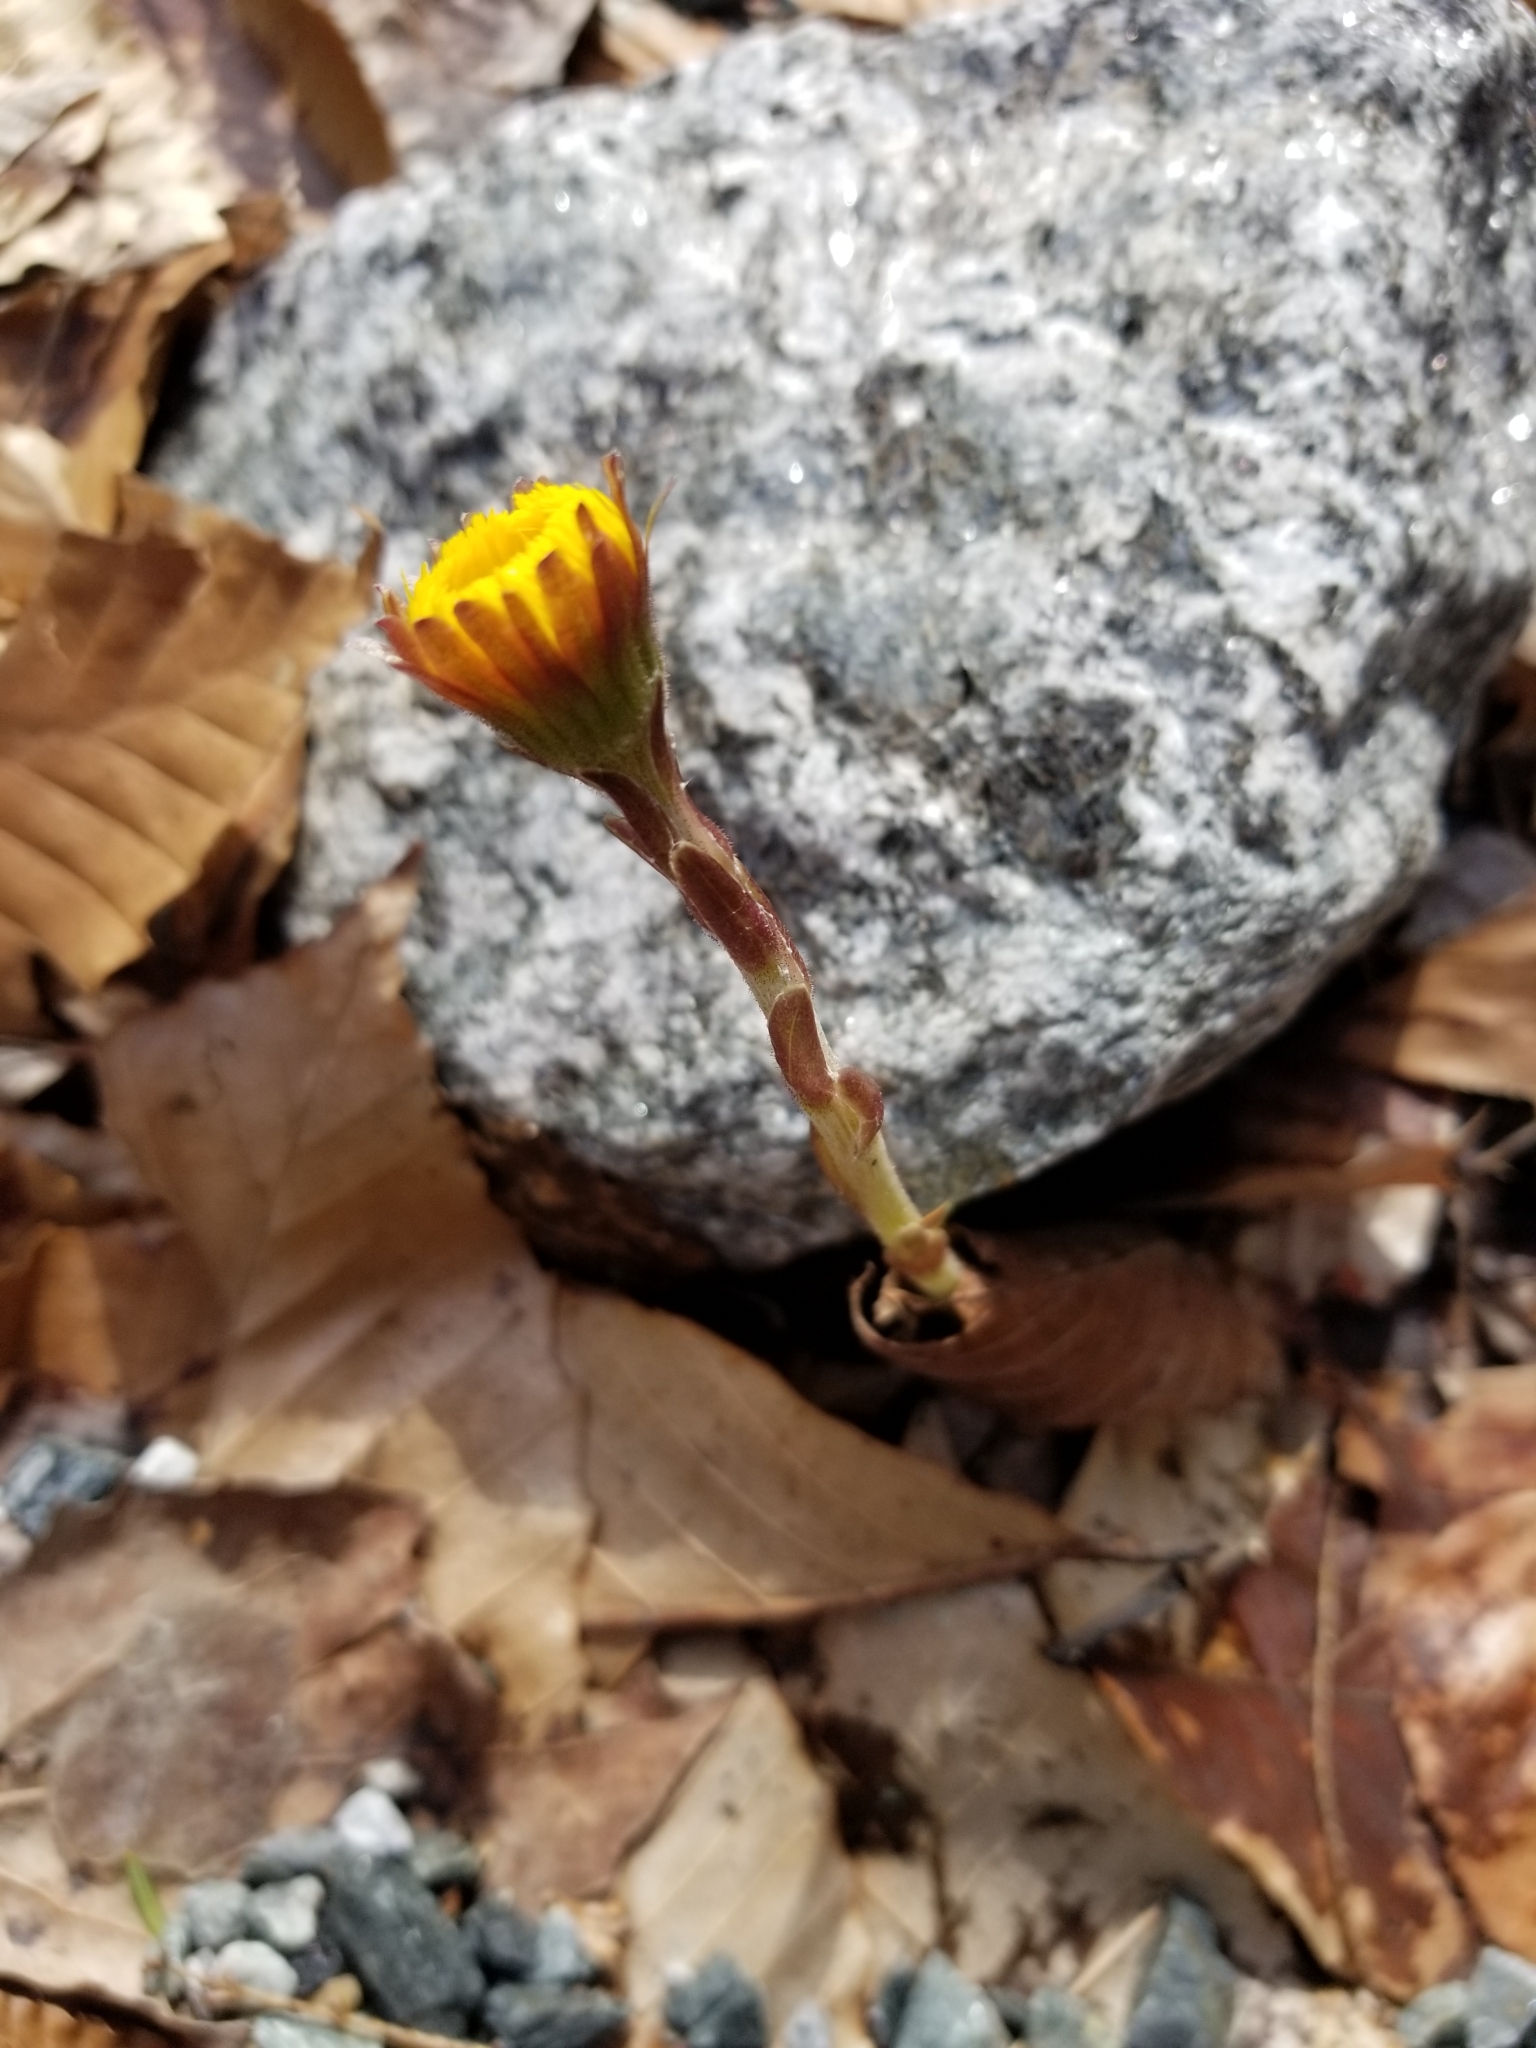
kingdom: Plantae
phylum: Tracheophyta
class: Magnoliopsida
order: Asterales
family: Asteraceae
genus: Tussilago
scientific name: Tussilago farfara
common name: Coltsfoot
